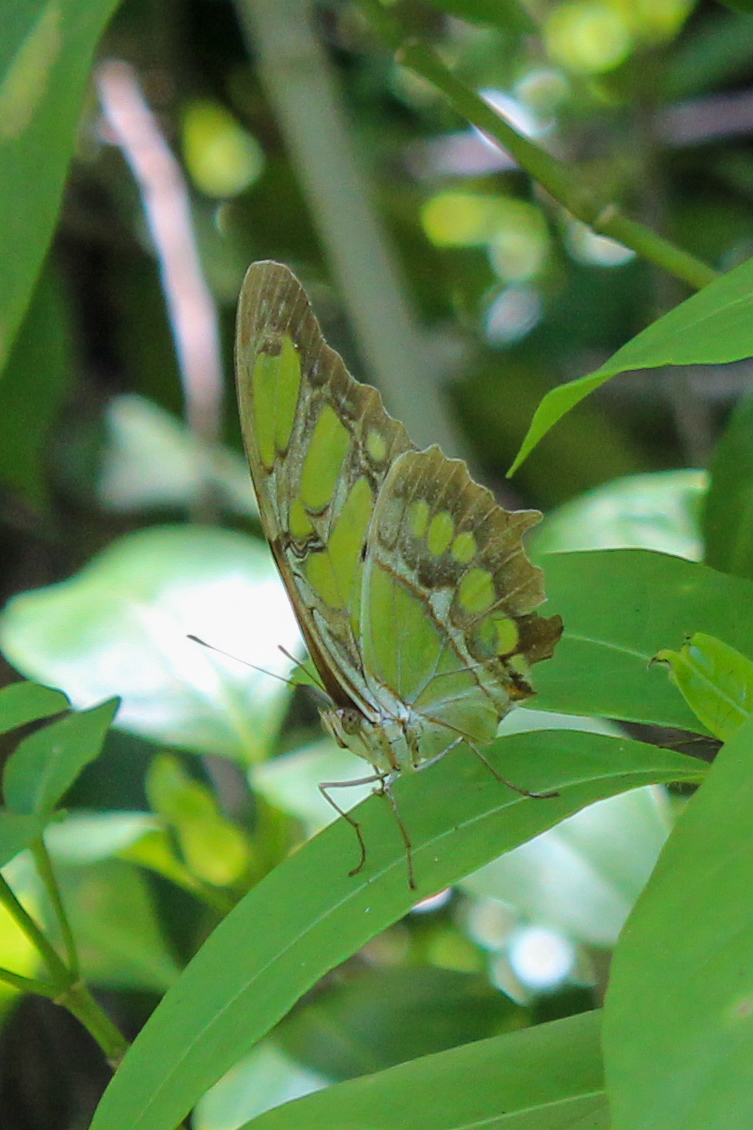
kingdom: Animalia
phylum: Arthropoda
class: Insecta
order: Lepidoptera
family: Nymphalidae
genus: Siproeta
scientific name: Siproeta stelenes
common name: Malachite
